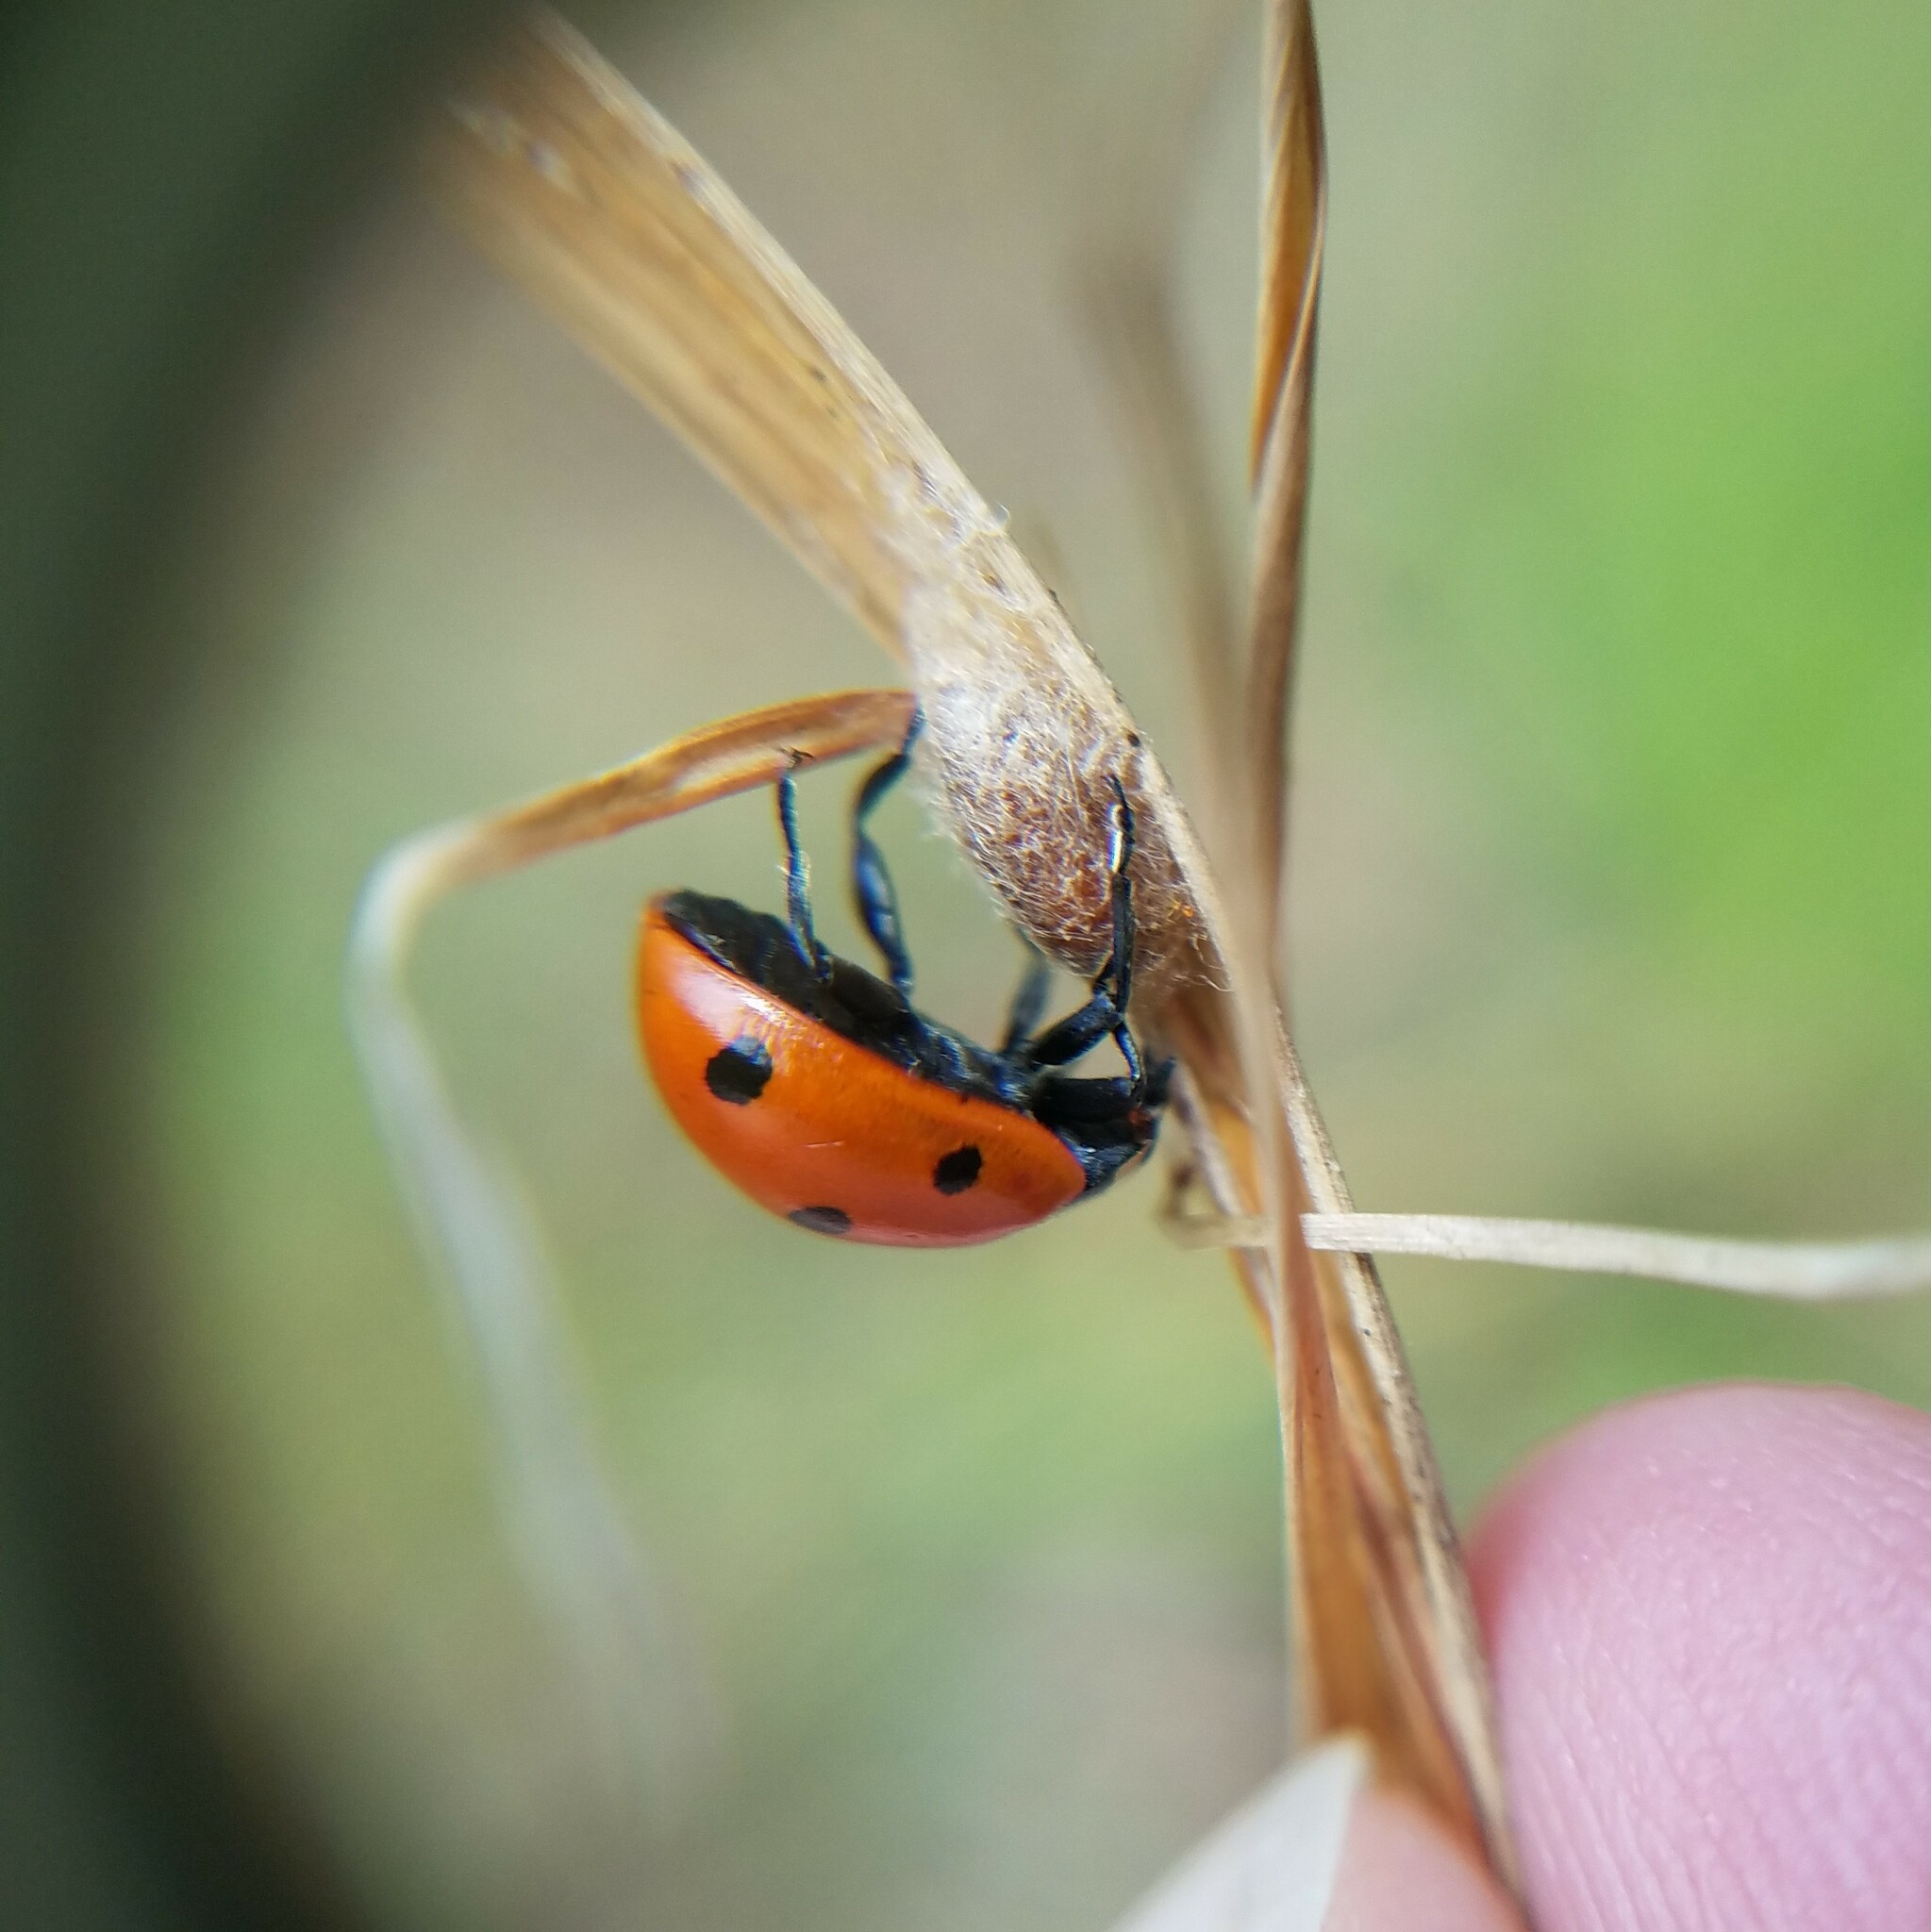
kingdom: Animalia
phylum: Arthropoda
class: Insecta
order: Hymenoptera
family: Braconidae
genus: Dinocampus
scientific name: Dinocampus coccinellae
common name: Braconid wasp
